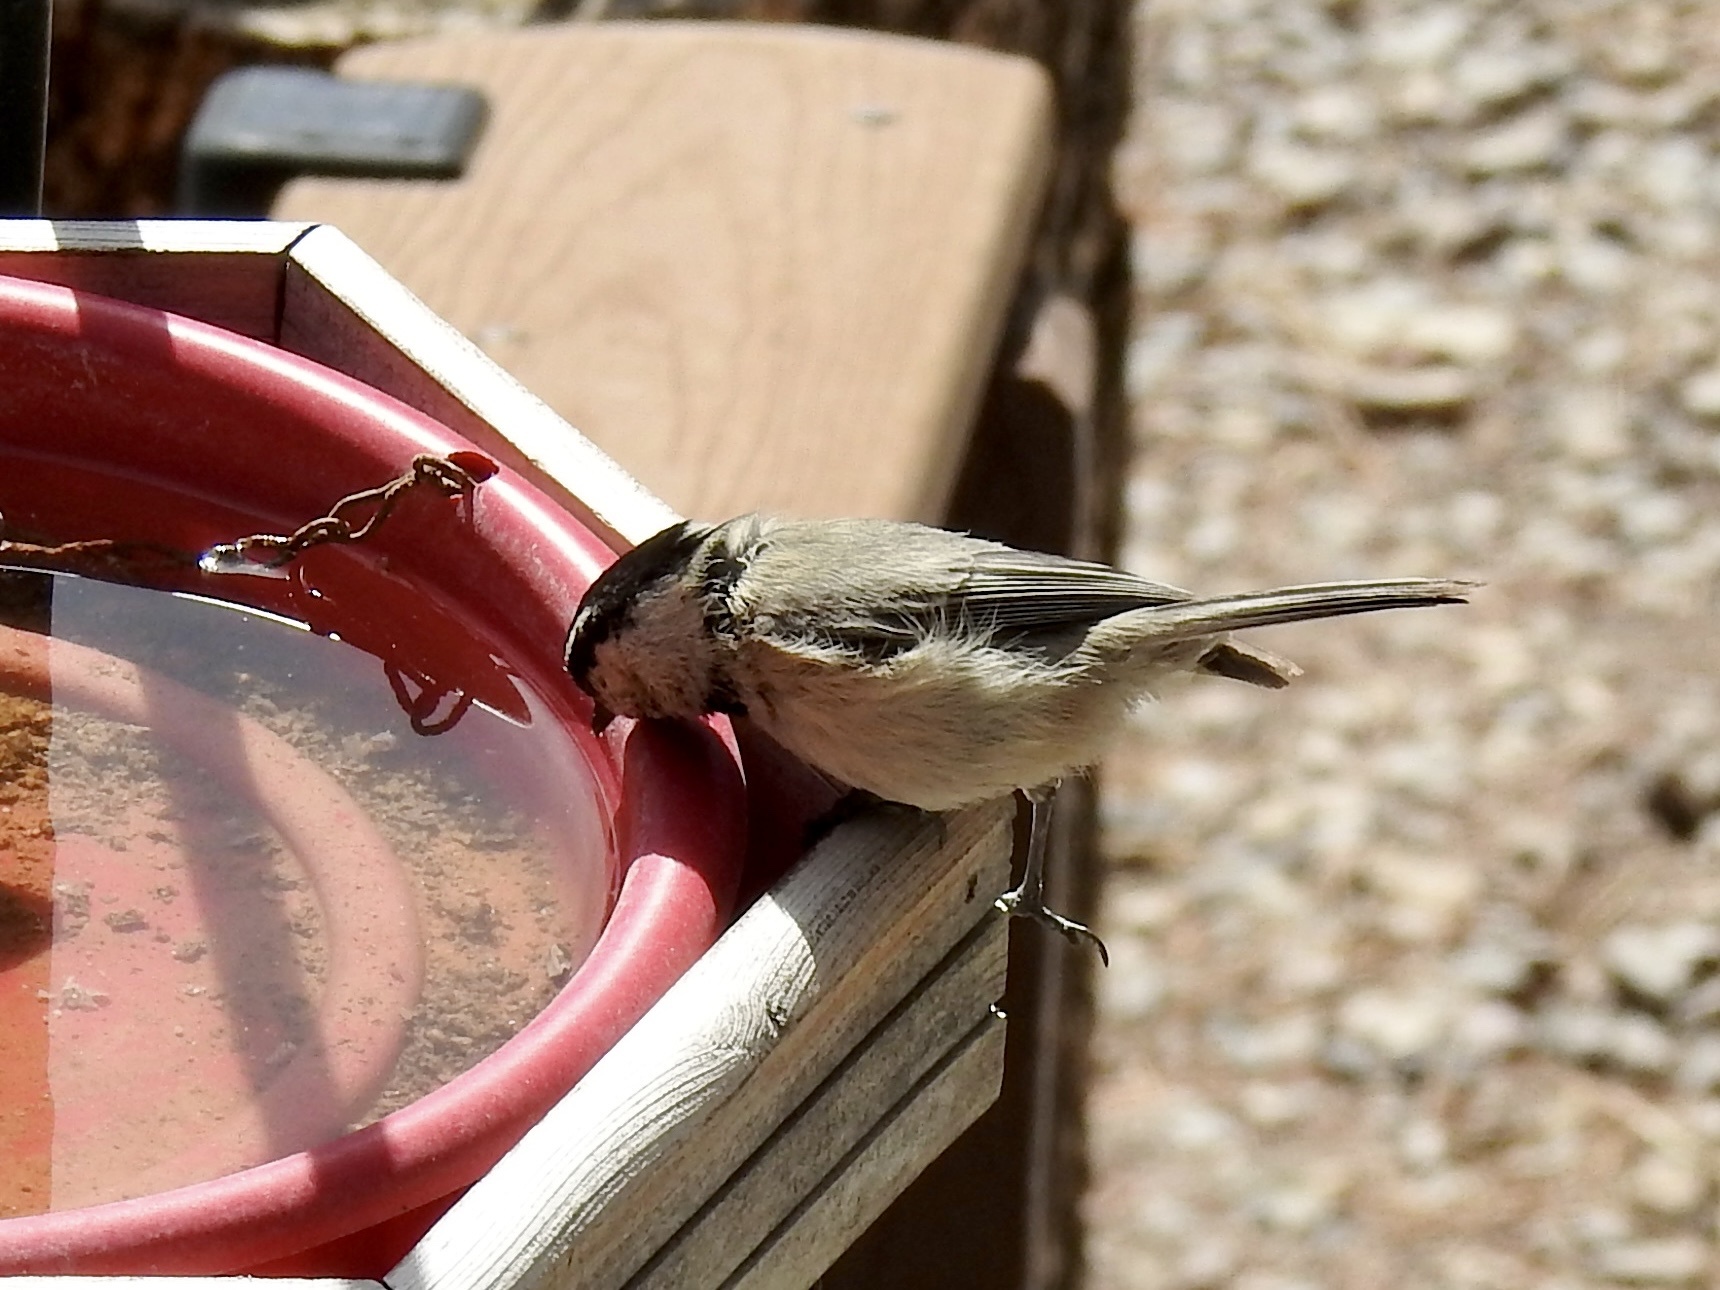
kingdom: Animalia
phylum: Chordata
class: Aves
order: Passeriformes
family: Paridae
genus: Poecile
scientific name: Poecile gambeli
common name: Mountain chickadee
